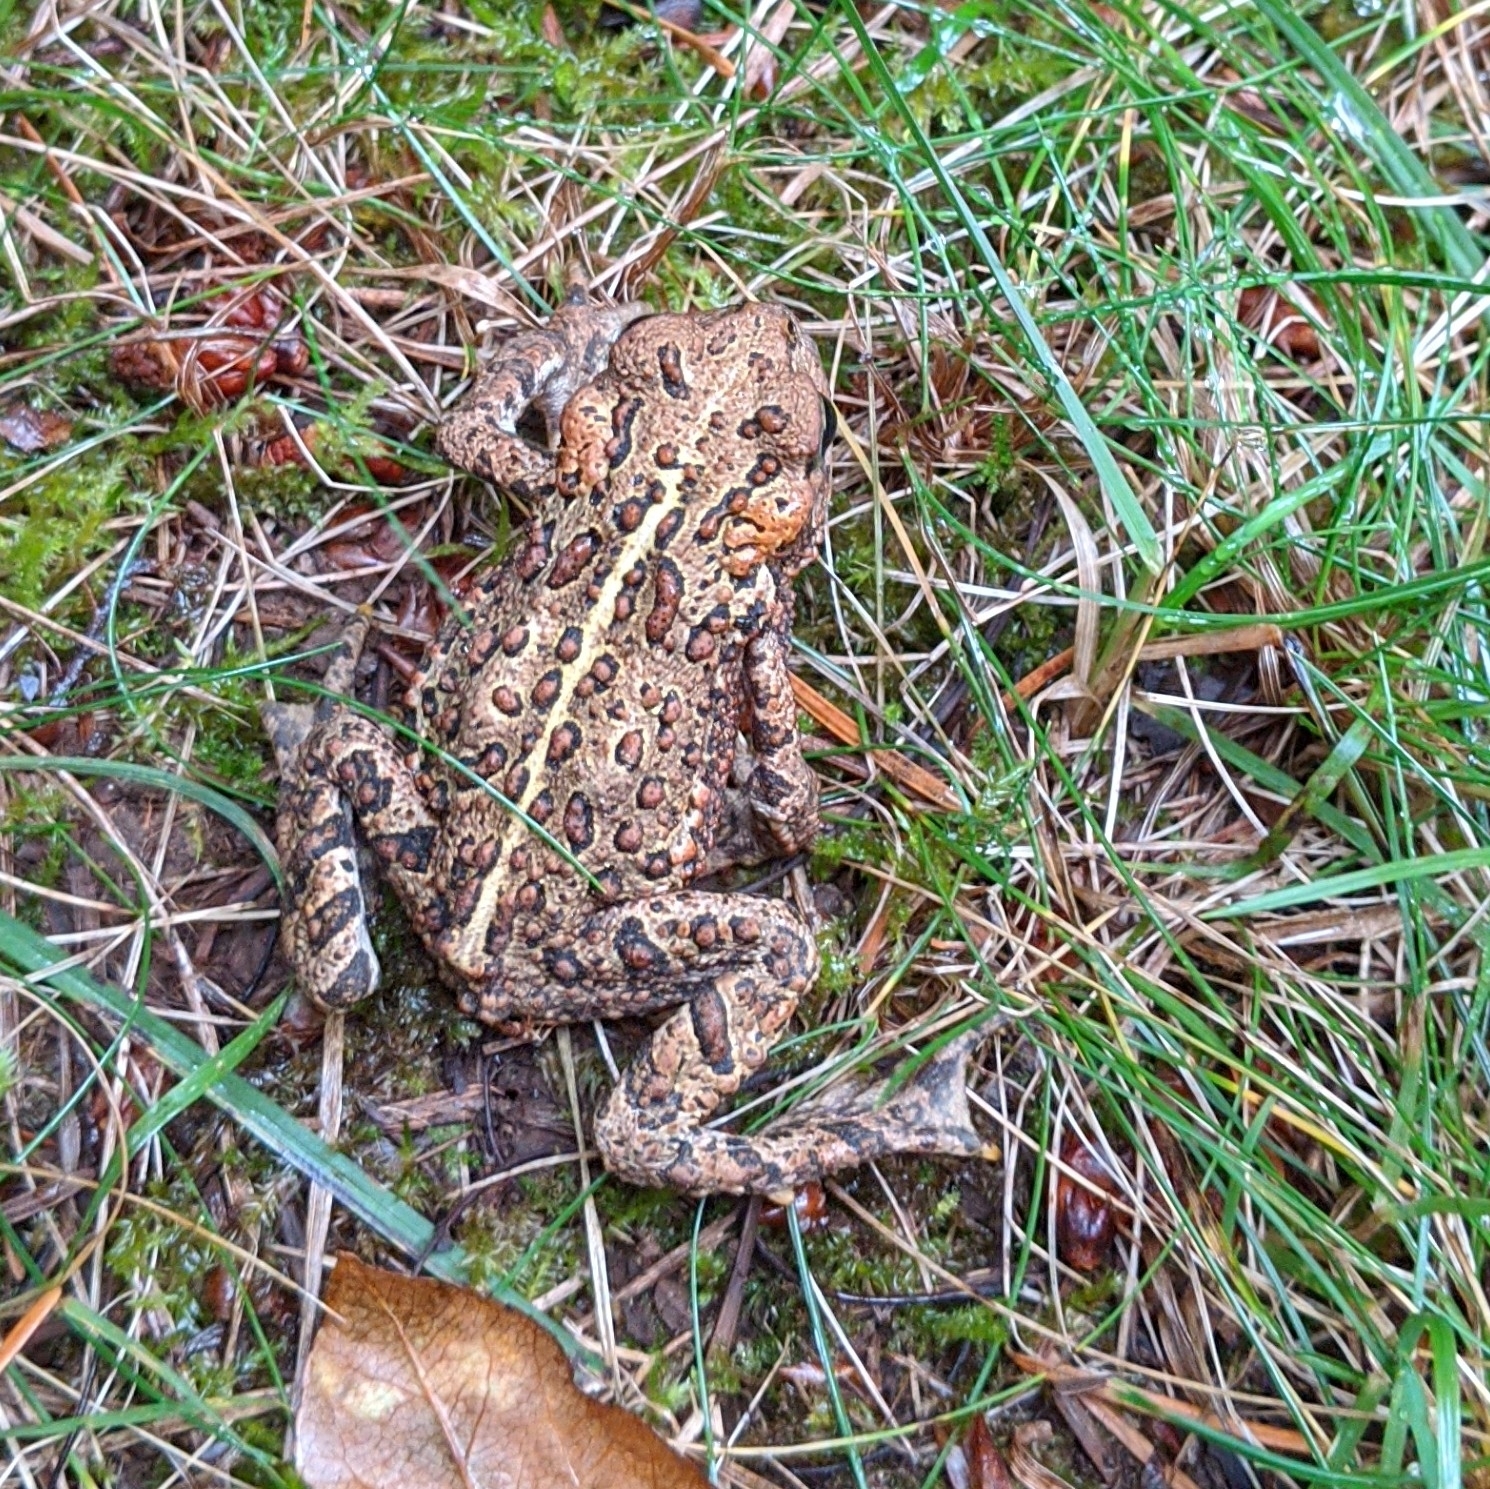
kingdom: Animalia
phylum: Chordata
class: Amphibia
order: Anura
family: Bufonidae
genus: Anaxyrus
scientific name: Anaxyrus boreas
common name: Western toad
